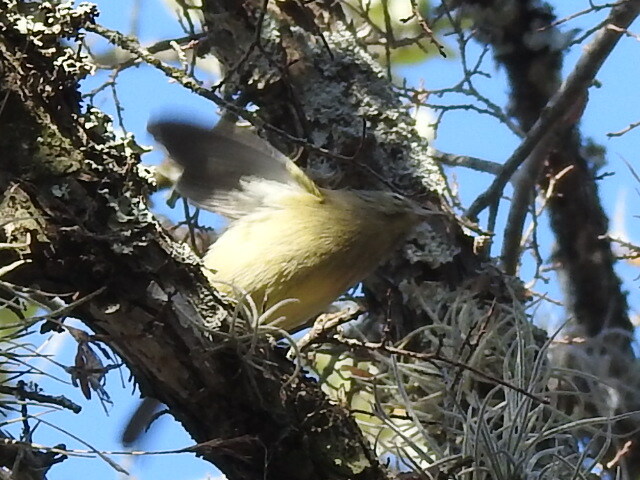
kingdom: Animalia
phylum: Chordata
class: Aves
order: Passeriformes
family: Parulidae
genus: Leiothlypis
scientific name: Leiothlypis celata
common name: Orange-crowned warbler
